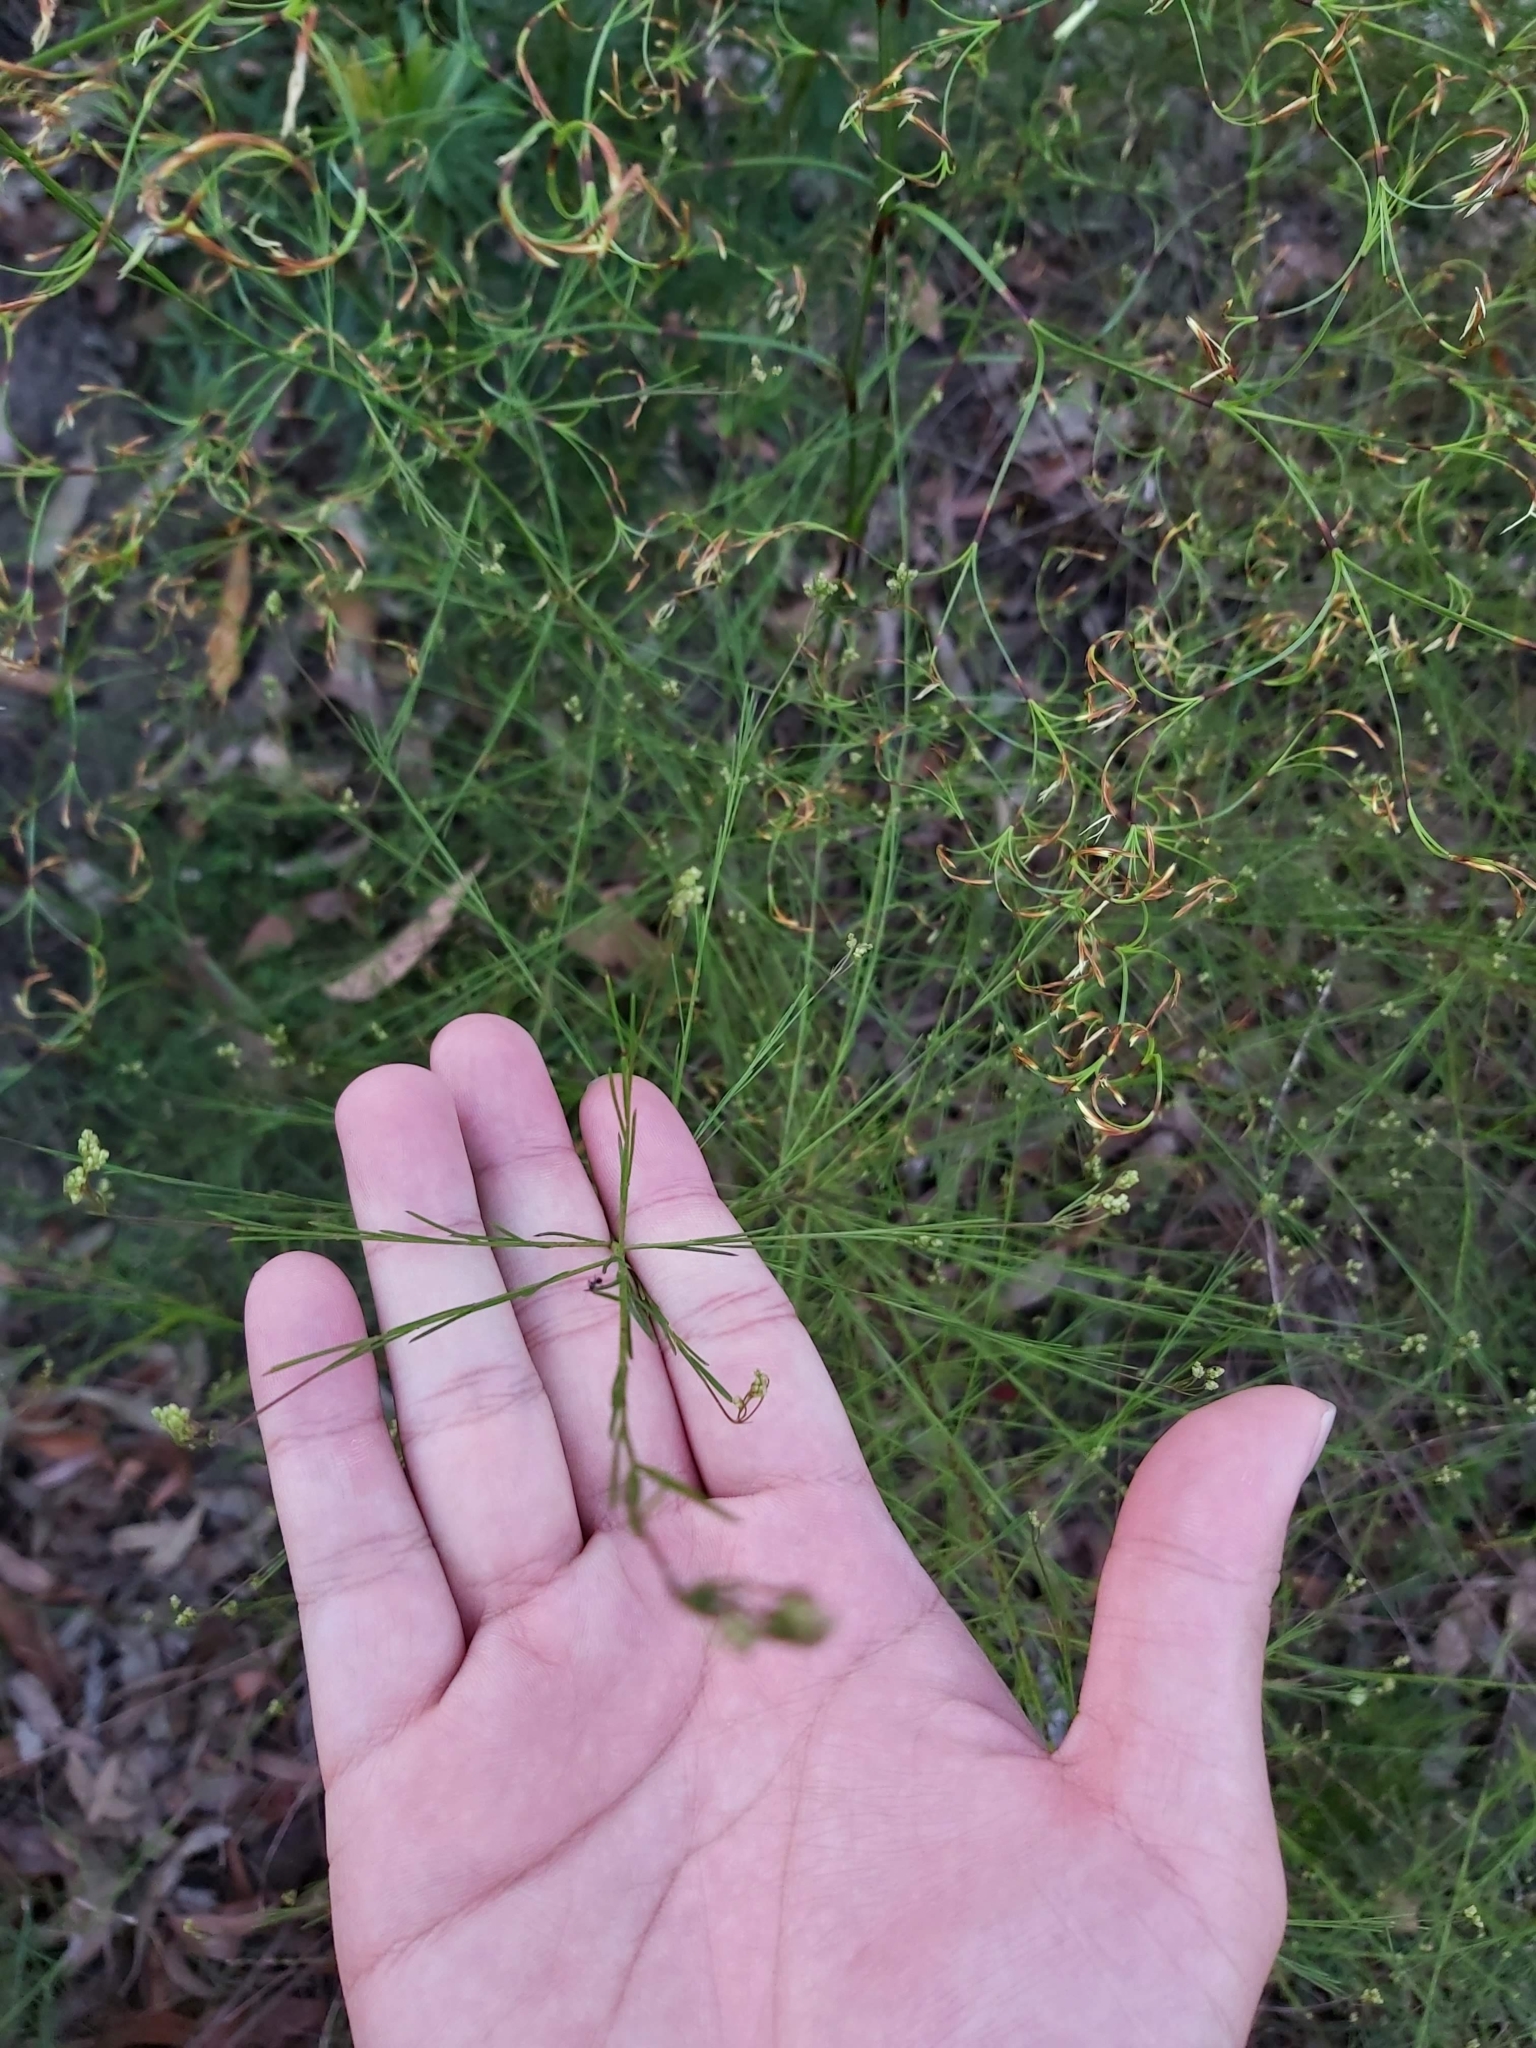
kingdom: Plantae
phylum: Tracheophyta
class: Magnoliopsida
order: Apiales
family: Apiaceae
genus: Platysace
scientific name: Platysace linearifolia
